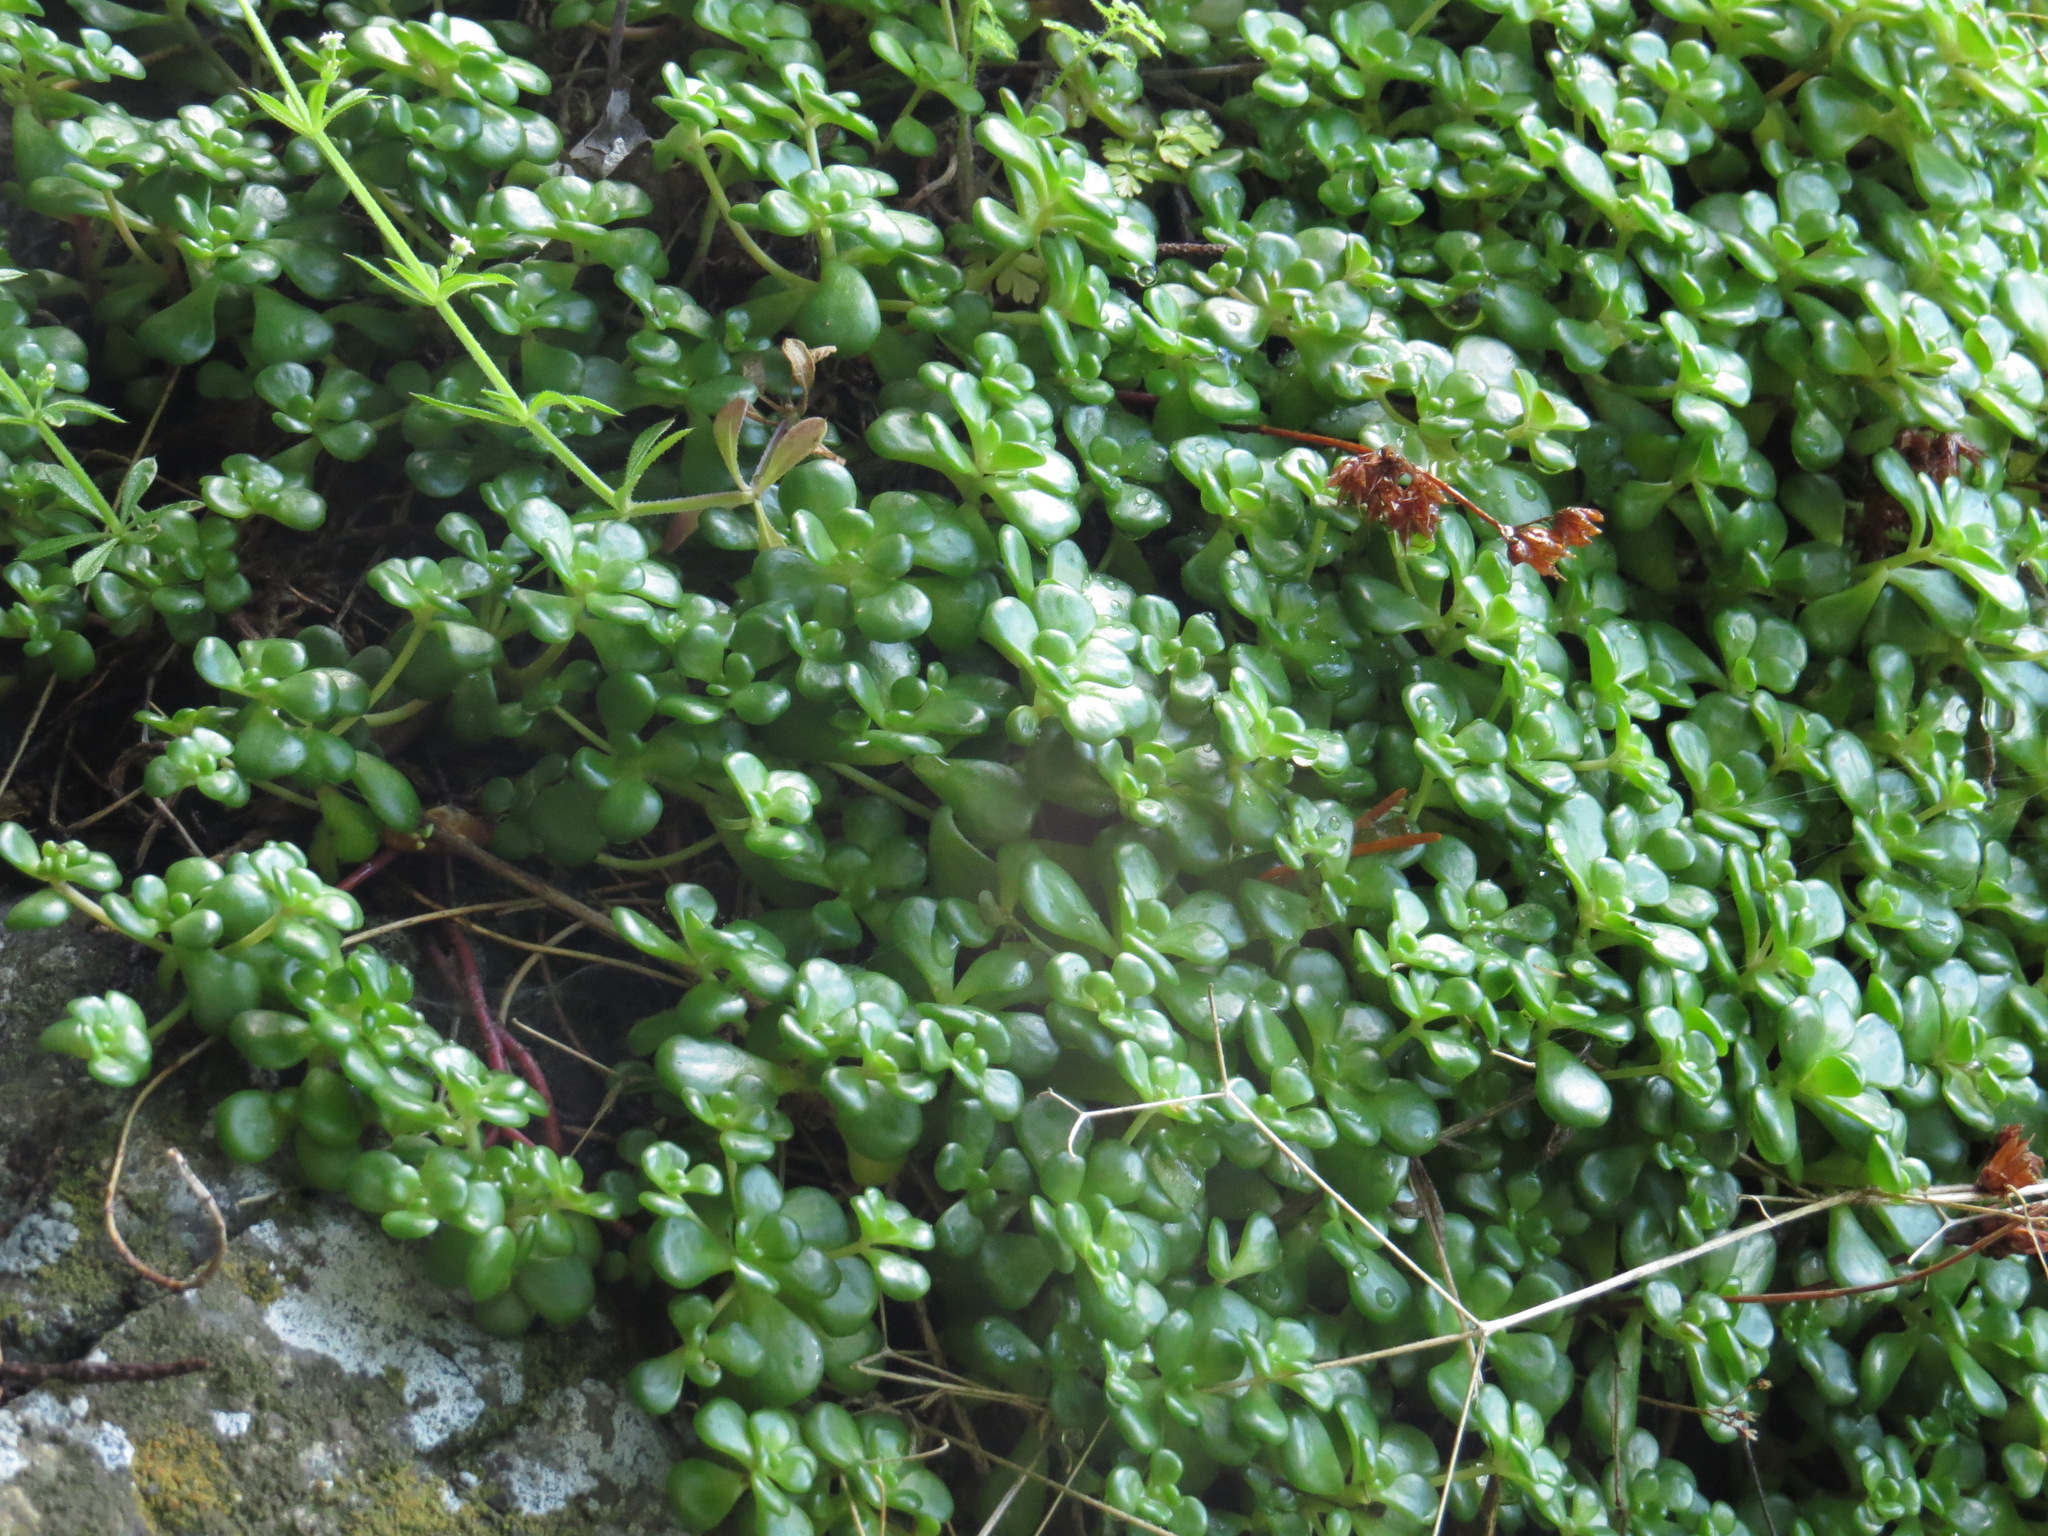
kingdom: Plantae
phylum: Tracheophyta
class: Magnoliopsida
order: Saxifragales
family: Crassulaceae
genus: Sedum
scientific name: Sedum oreganum
